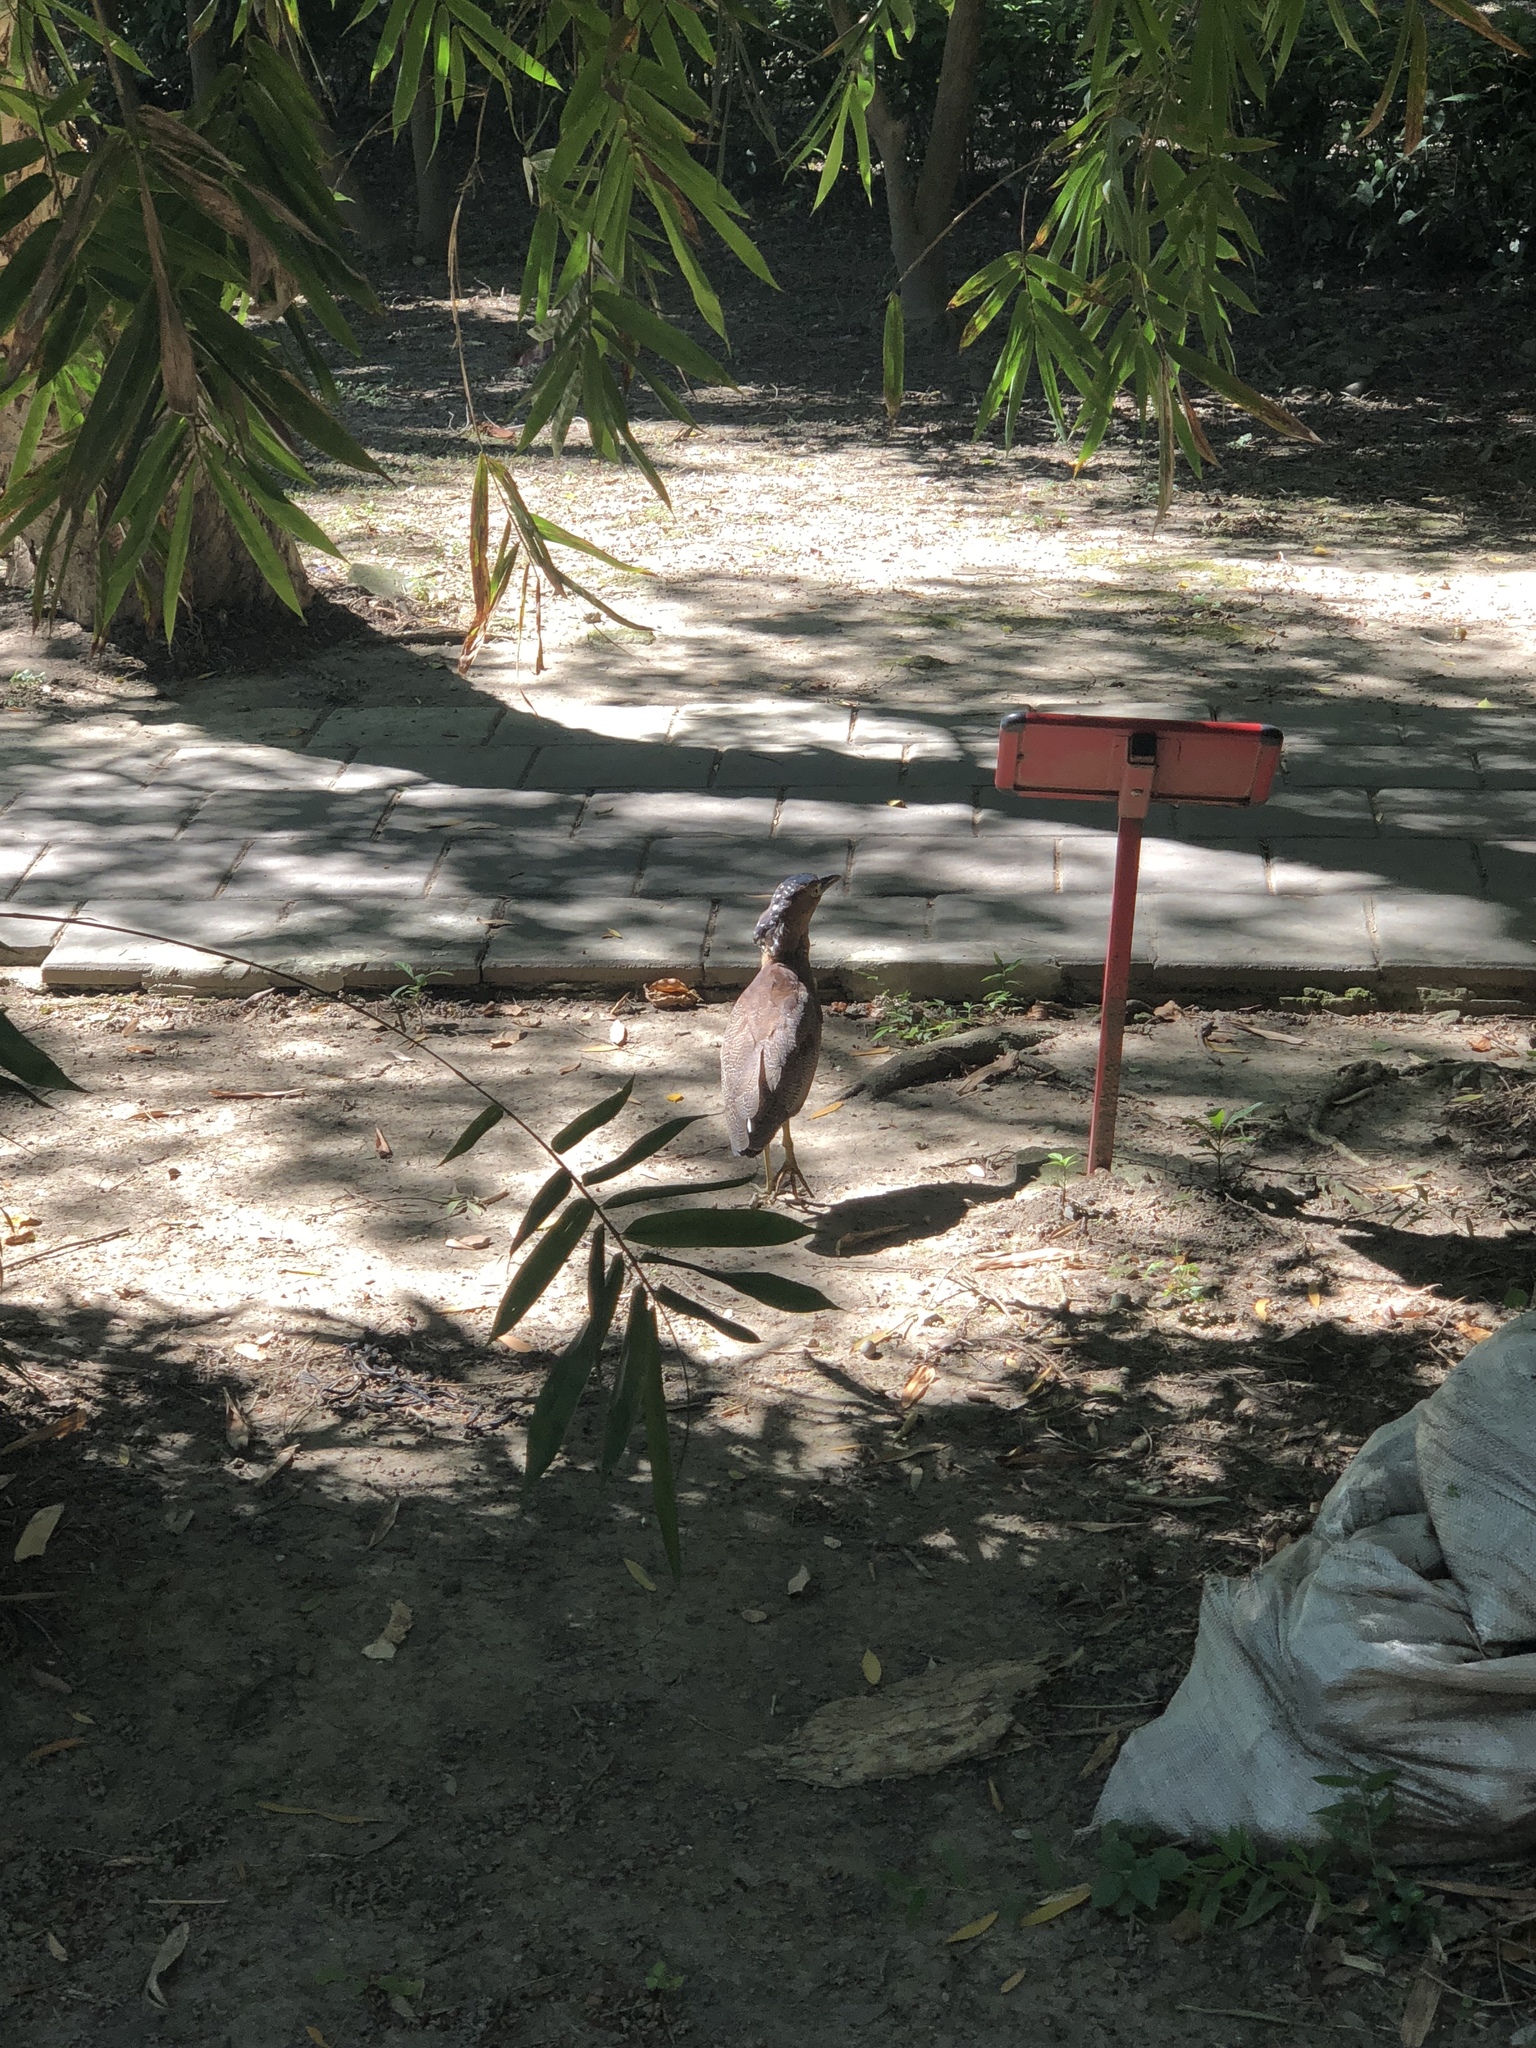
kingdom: Animalia
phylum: Chordata
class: Aves
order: Pelecaniformes
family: Ardeidae
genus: Gorsachius
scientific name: Gorsachius melanolophus
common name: Malayan night heron
